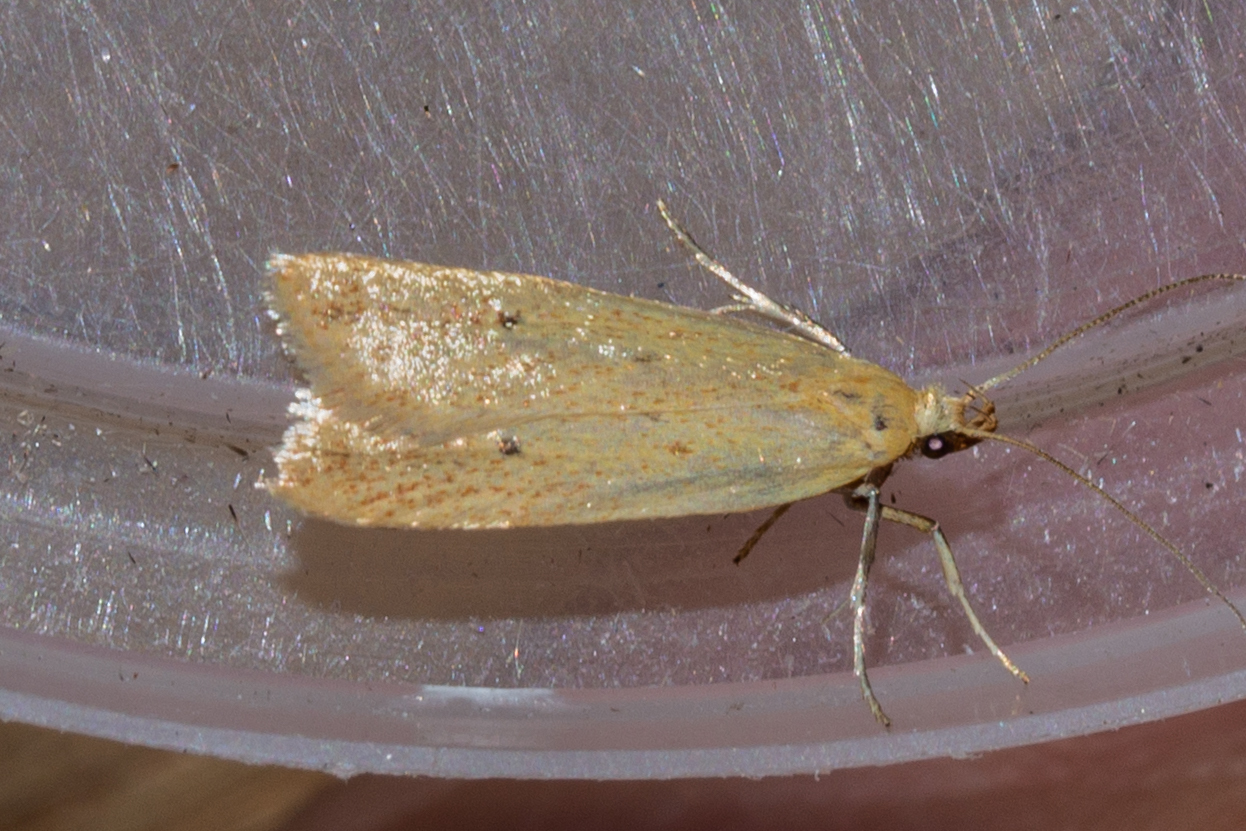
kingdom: Animalia
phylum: Arthropoda
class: Insecta
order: Lepidoptera
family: Oecophoridae
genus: Gymnobathra
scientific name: Gymnobathra sarcoxantha
